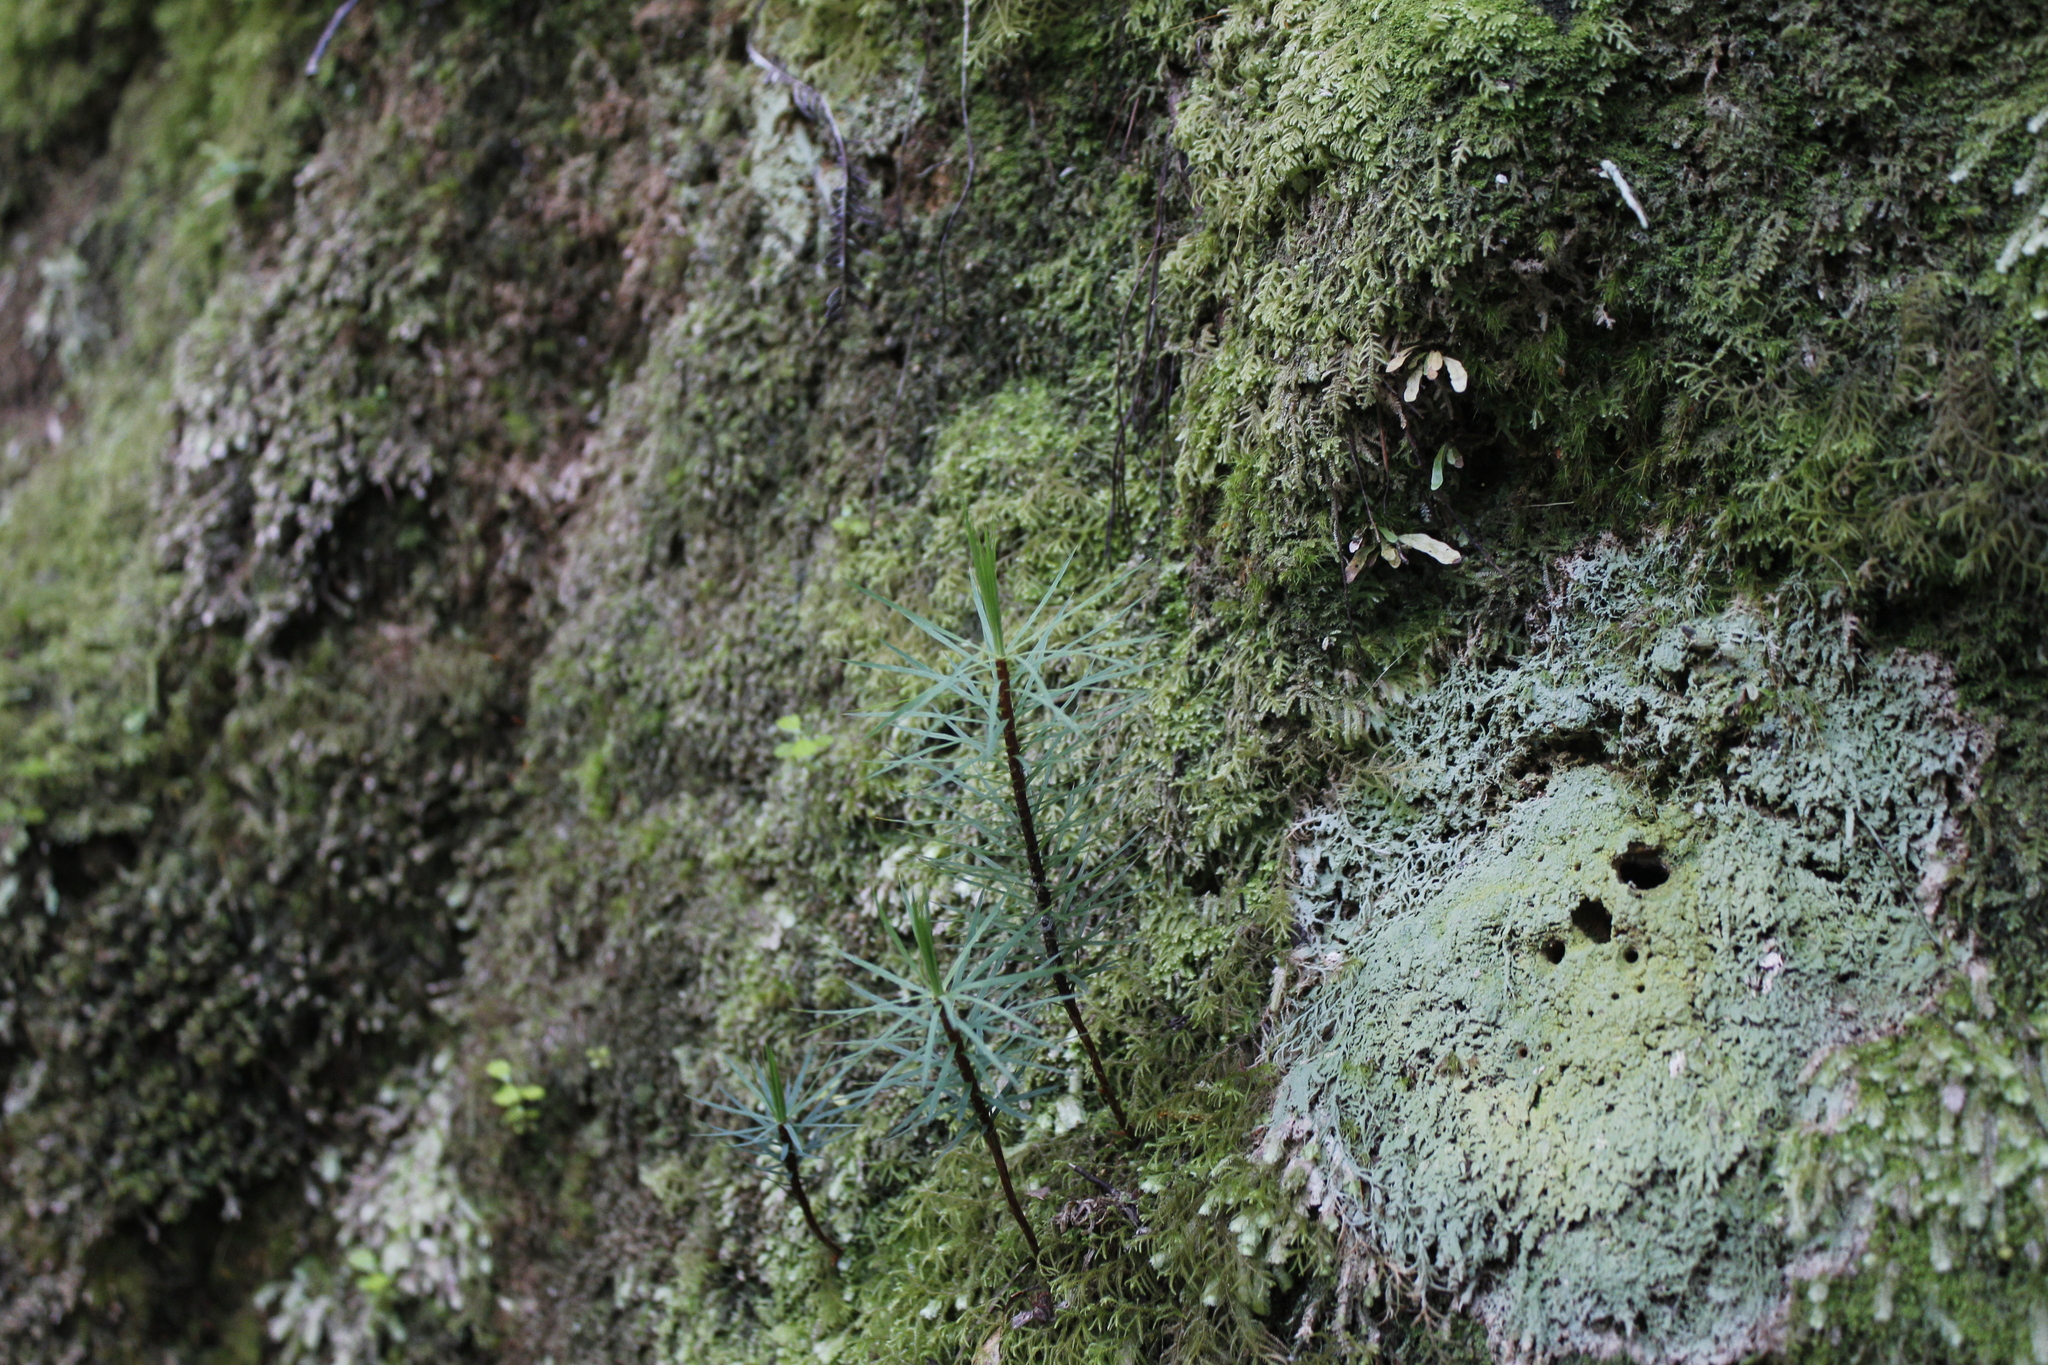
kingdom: Plantae
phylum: Bryophyta
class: Polytrichopsida
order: Polytrichales
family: Polytrichaceae
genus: Dawsonia
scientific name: Dawsonia superba
